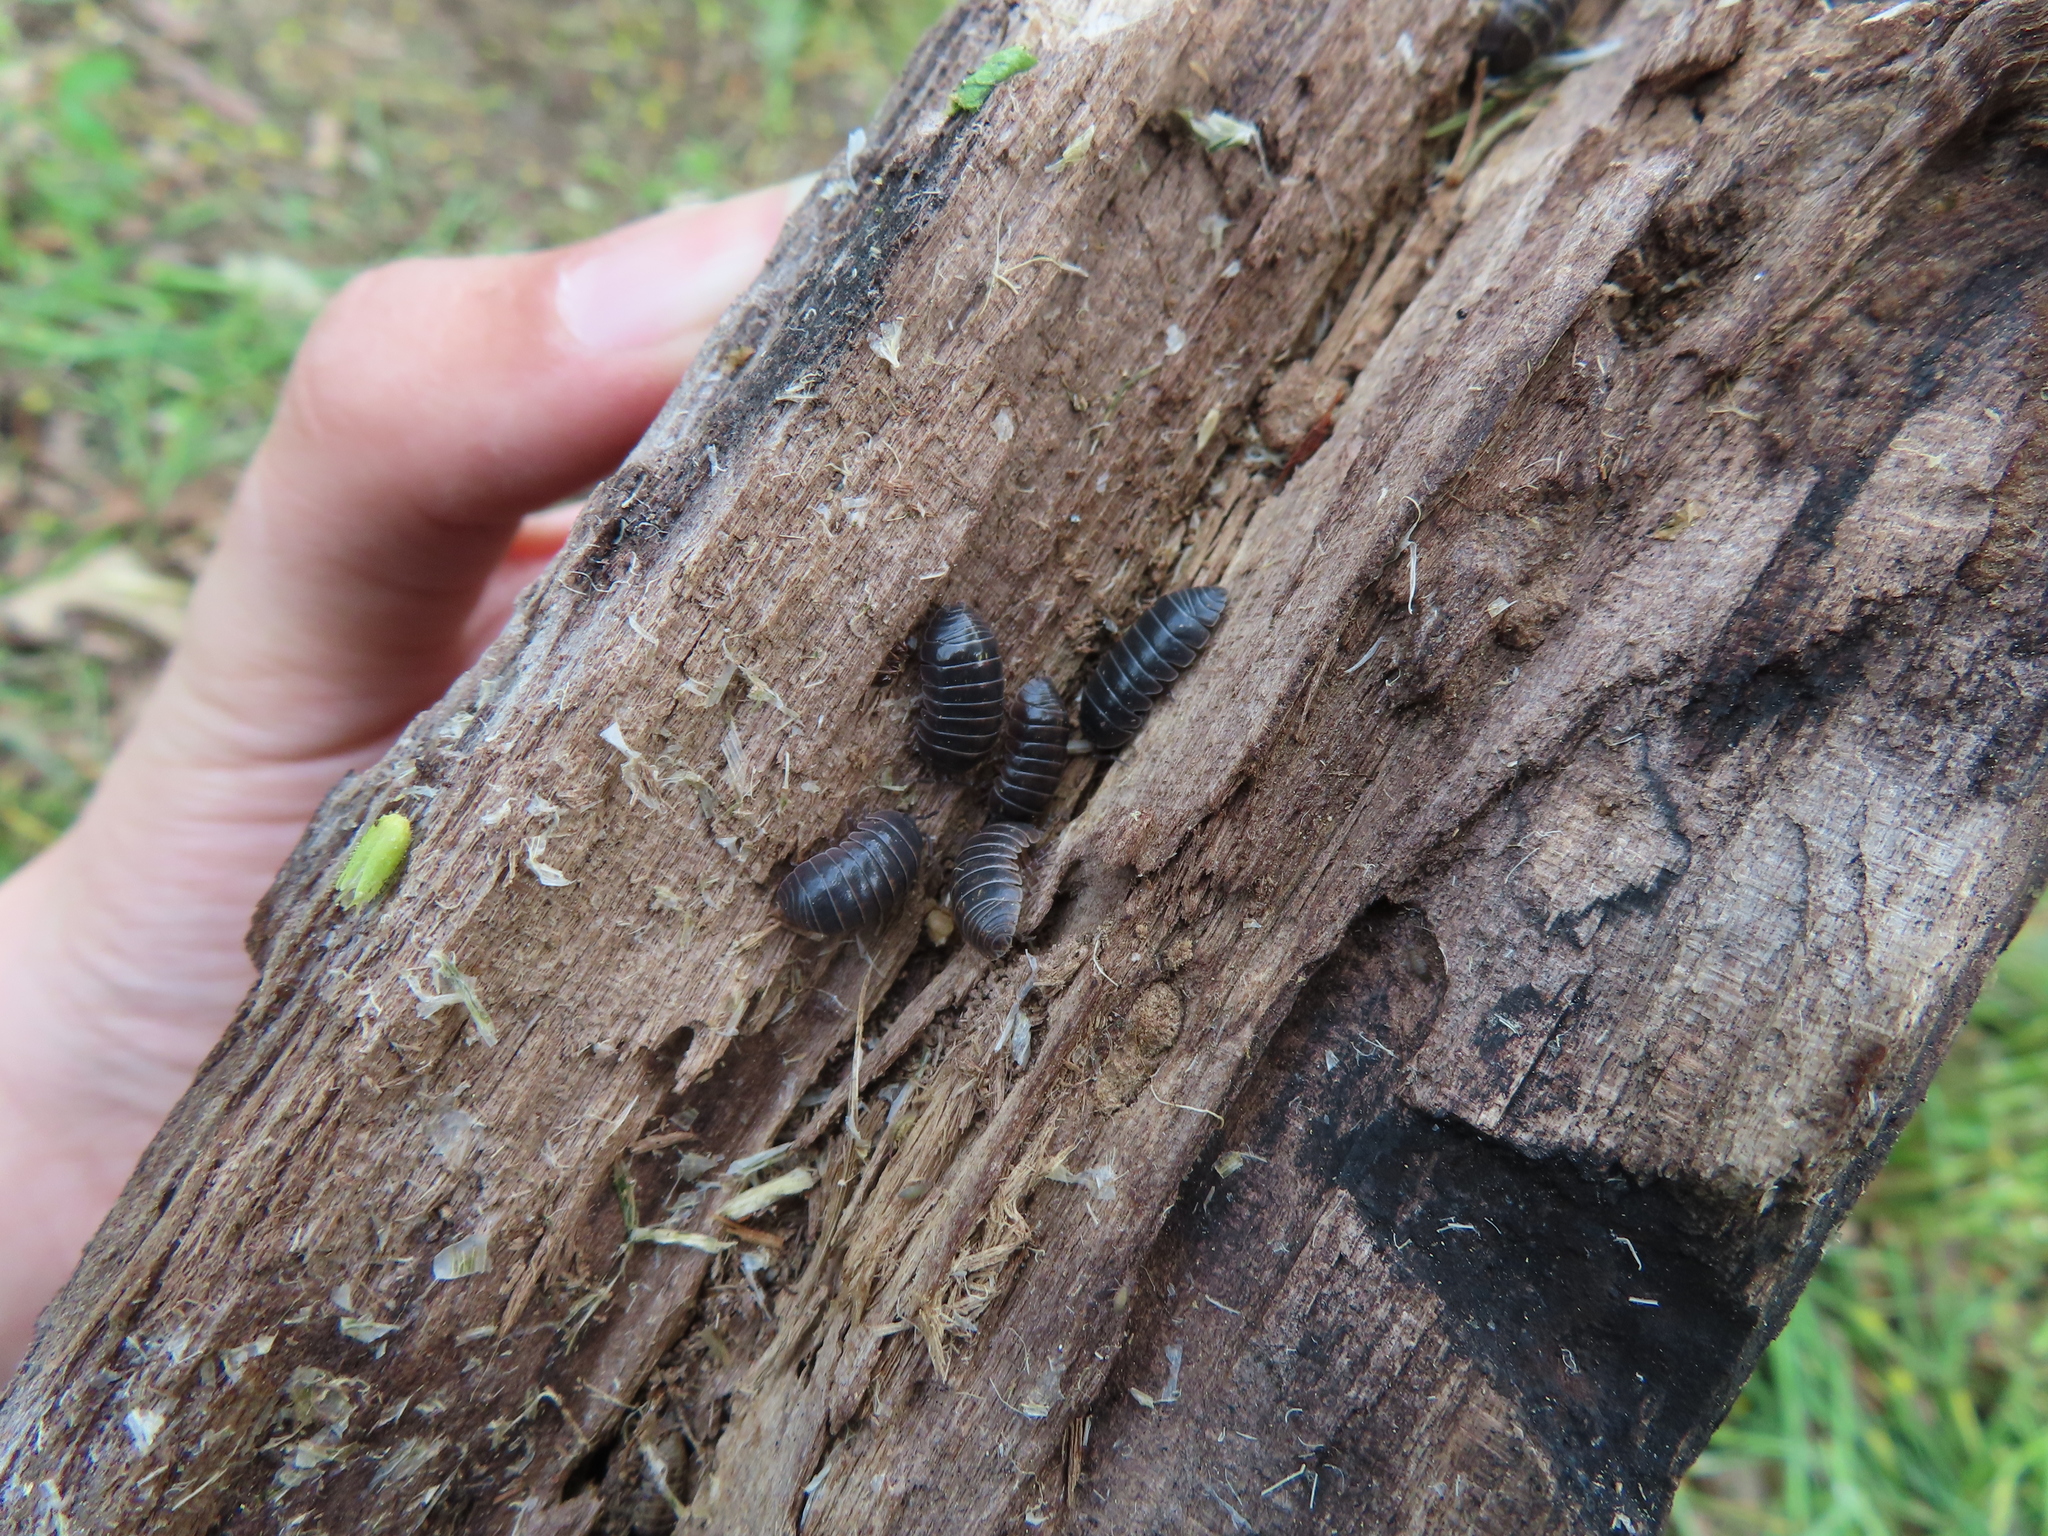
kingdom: Animalia
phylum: Arthropoda
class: Malacostraca
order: Isopoda
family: Armadillidiidae
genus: Armadillidium
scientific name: Armadillidium vulgare
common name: Common pill woodlouse
